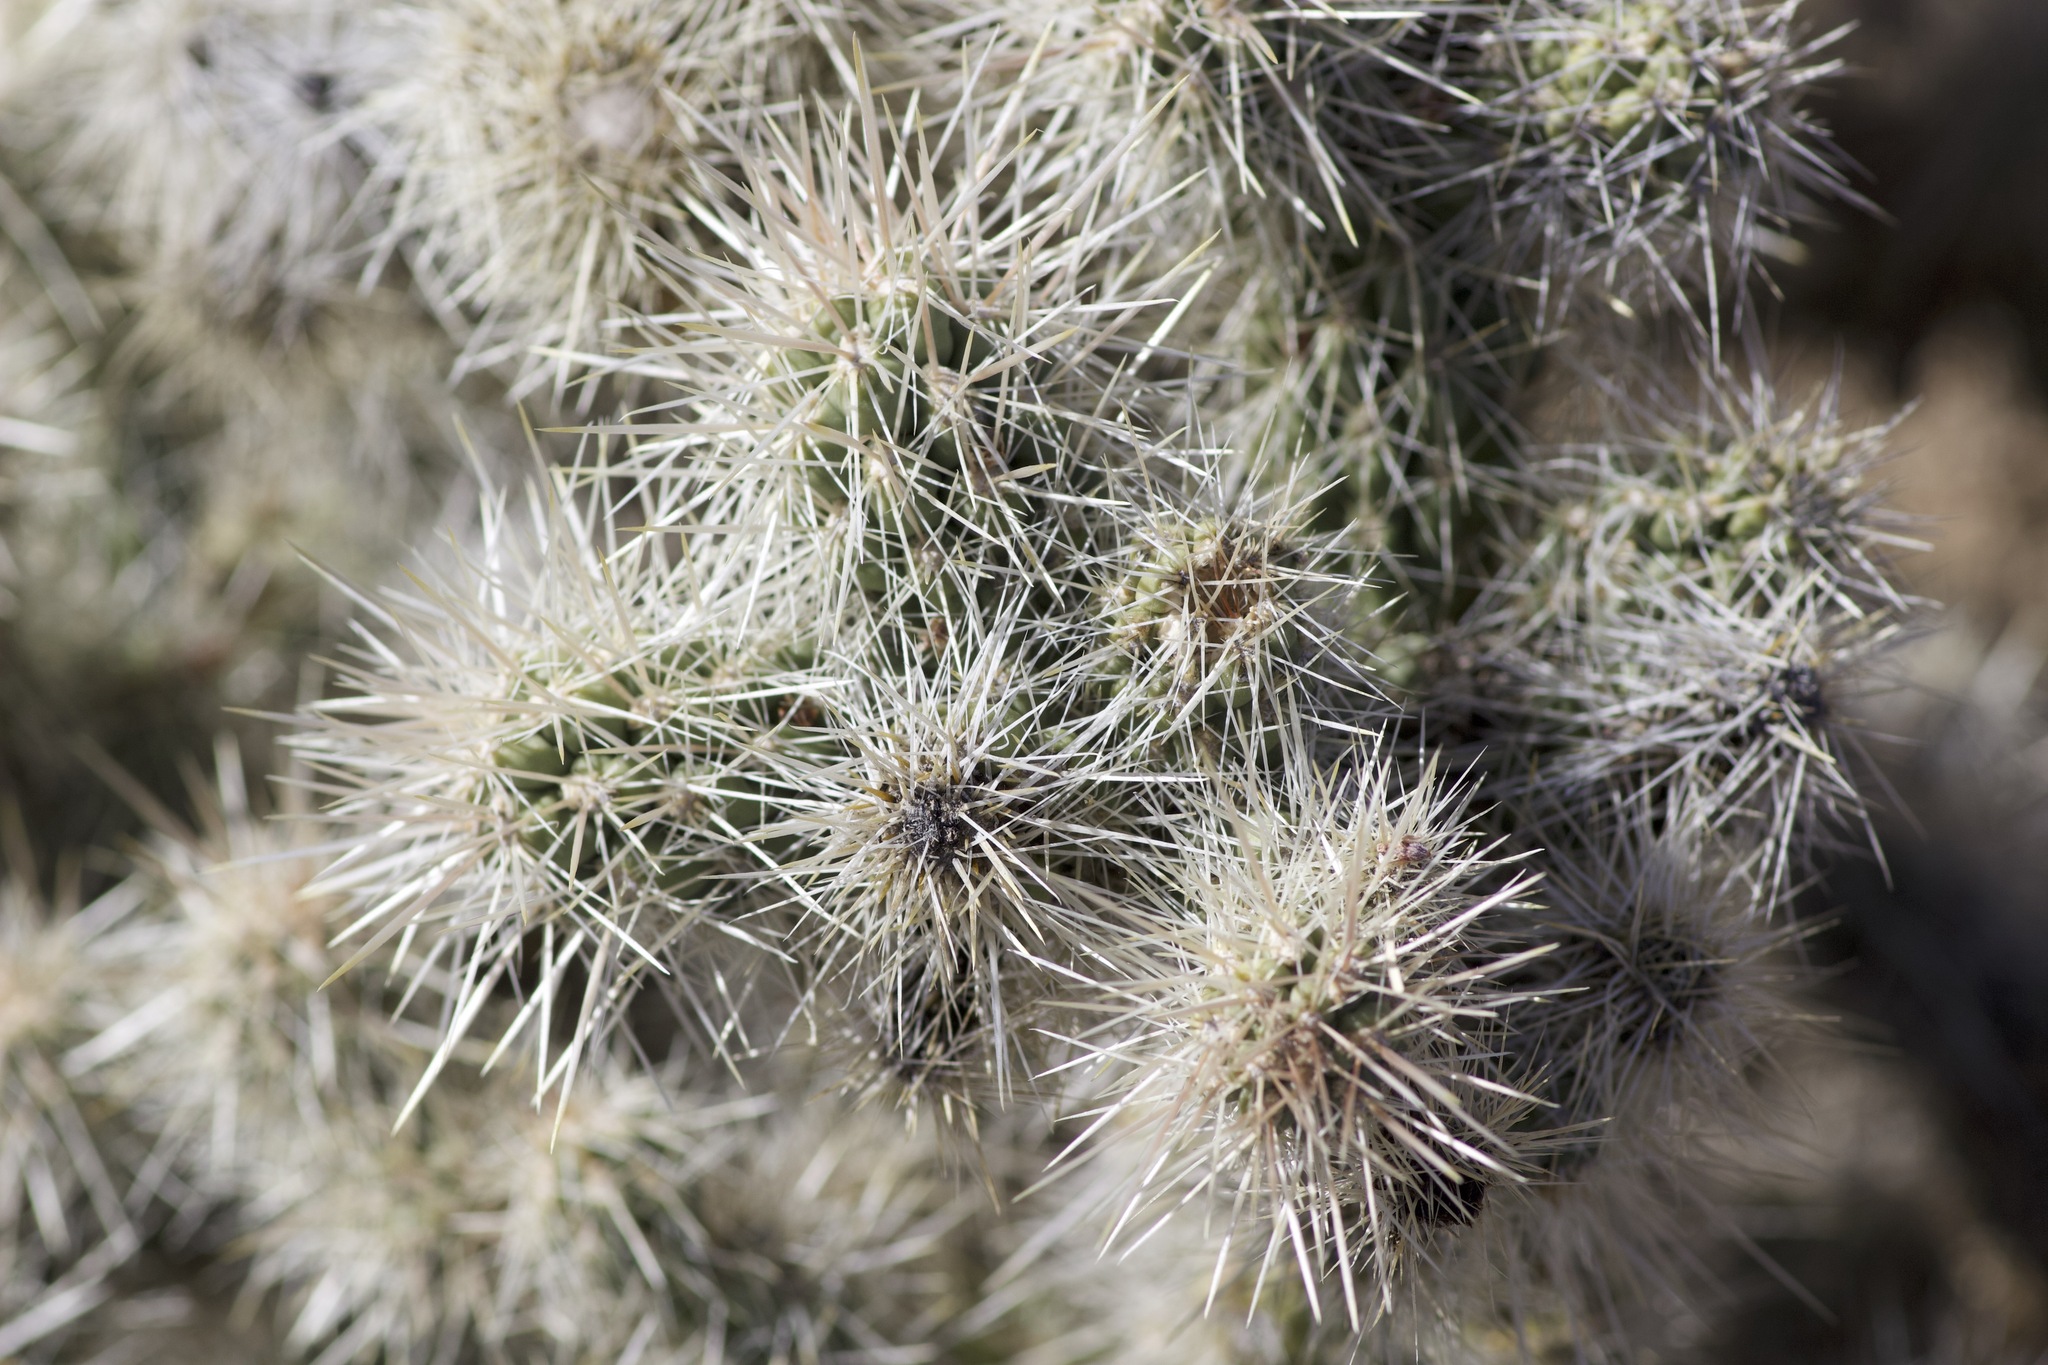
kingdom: Plantae
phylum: Tracheophyta
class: Magnoliopsida
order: Caryophyllales
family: Cactaceae
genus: Cylindropuntia
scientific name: Cylindropuntia echinocarpa
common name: Ground cholla
